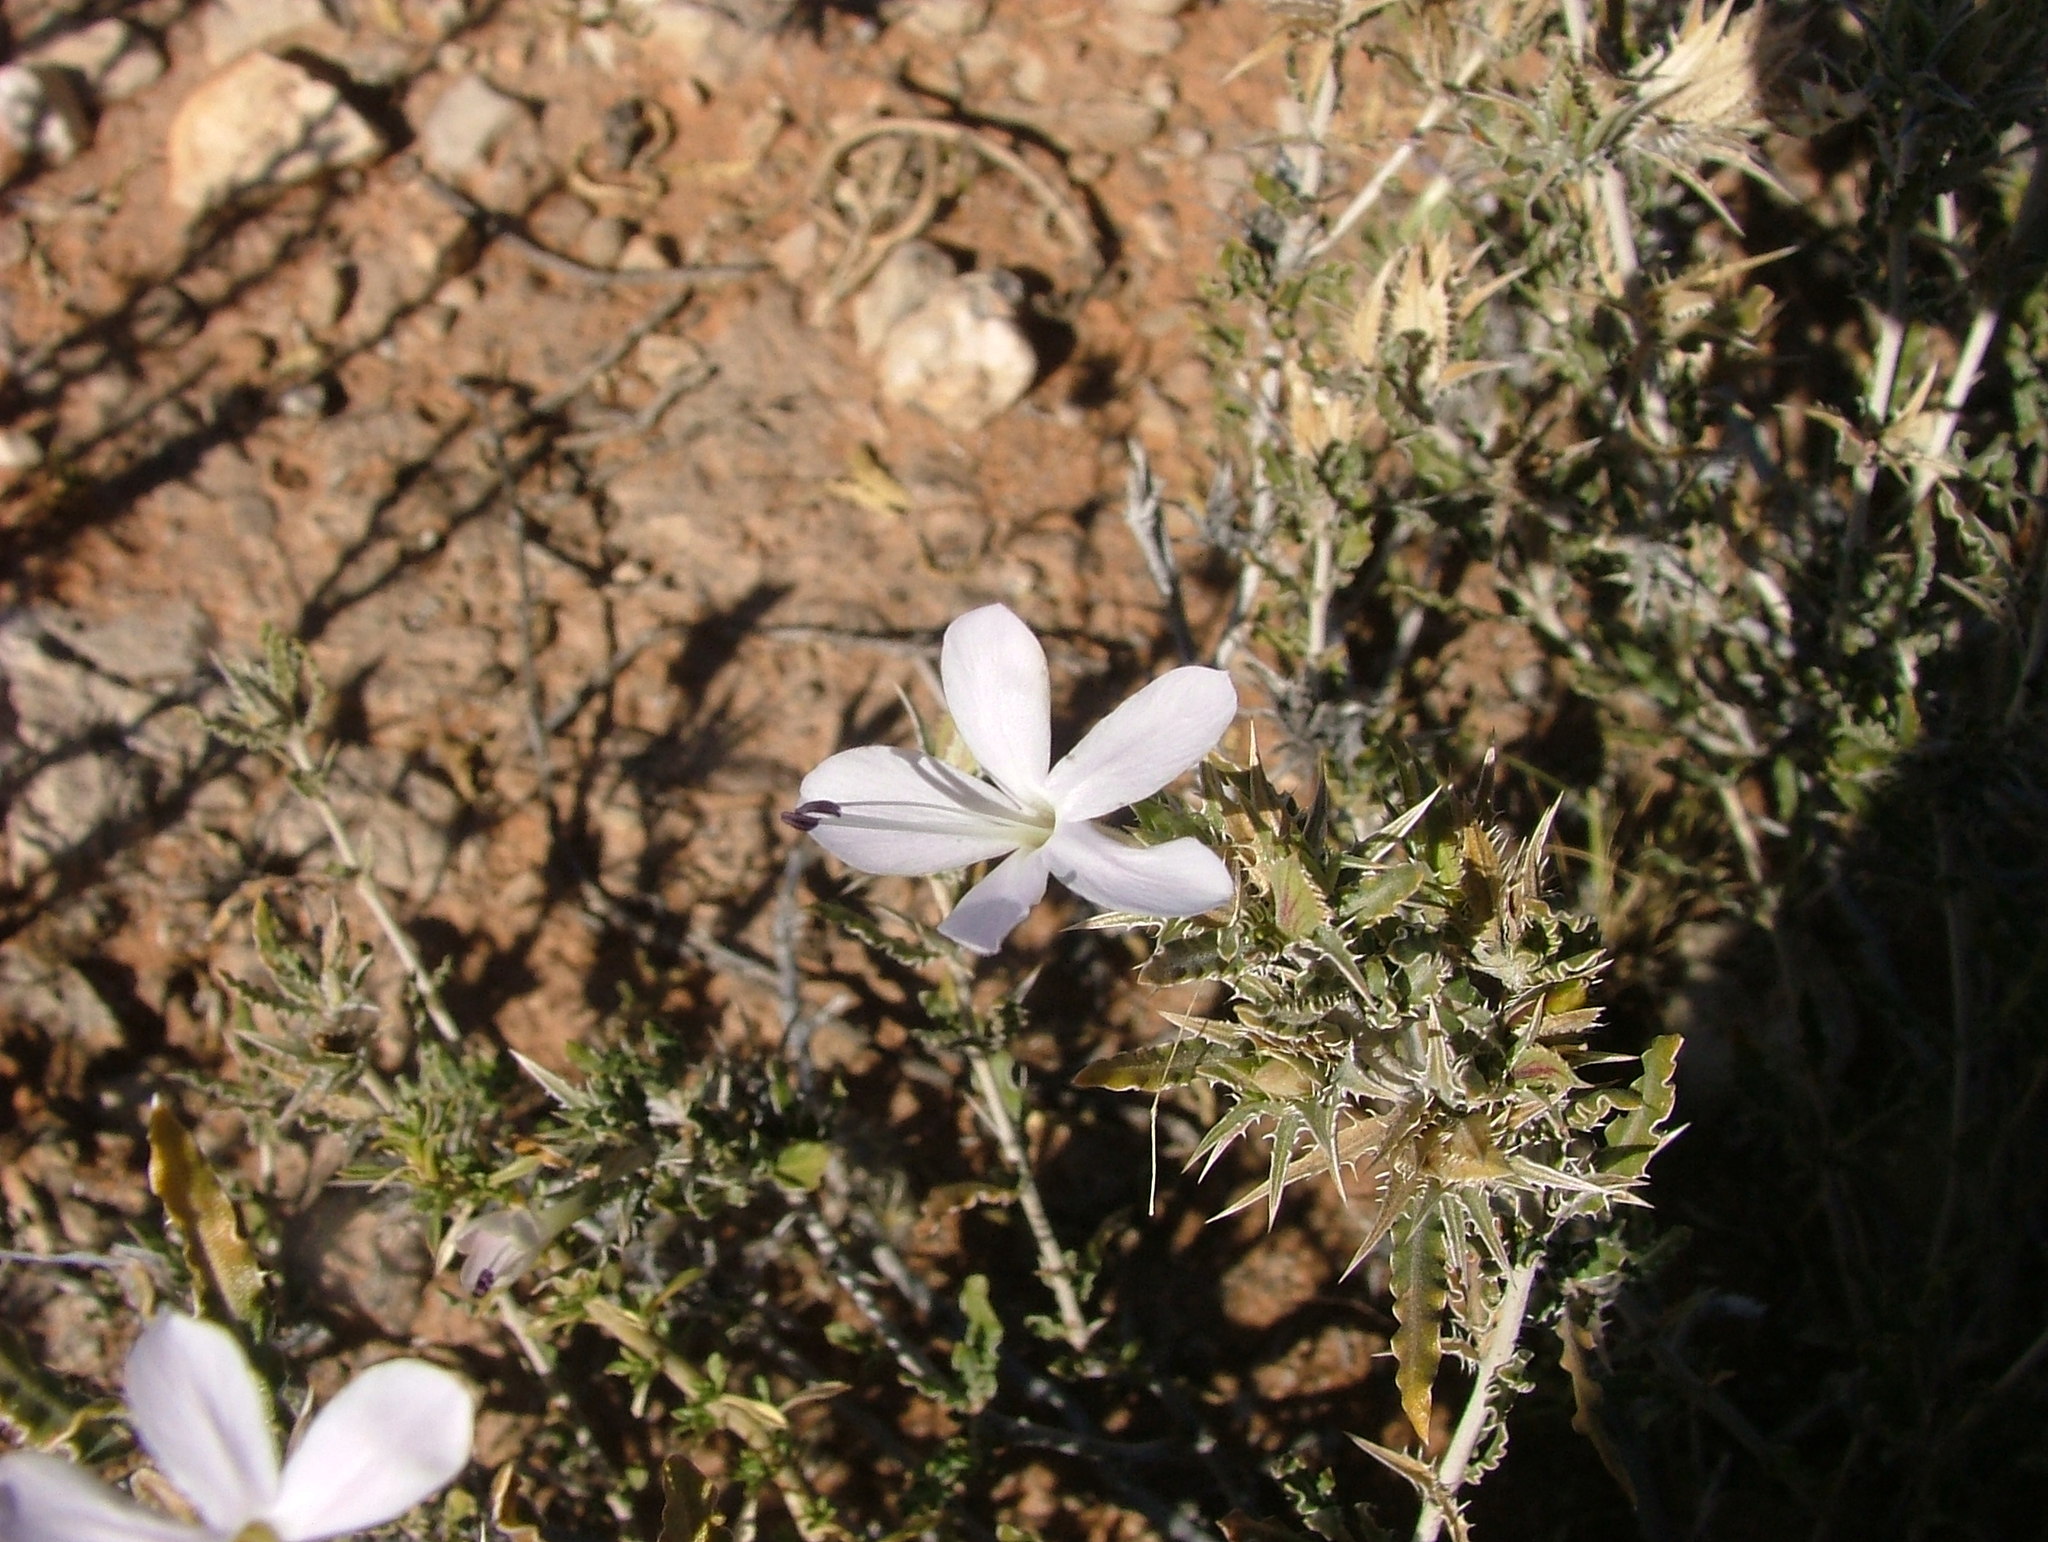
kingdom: Plantae
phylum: Tracheophyta
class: Magnoliopsida
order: Lamiales
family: Acanthaceae
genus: Barleria
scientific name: Barleria rigida
